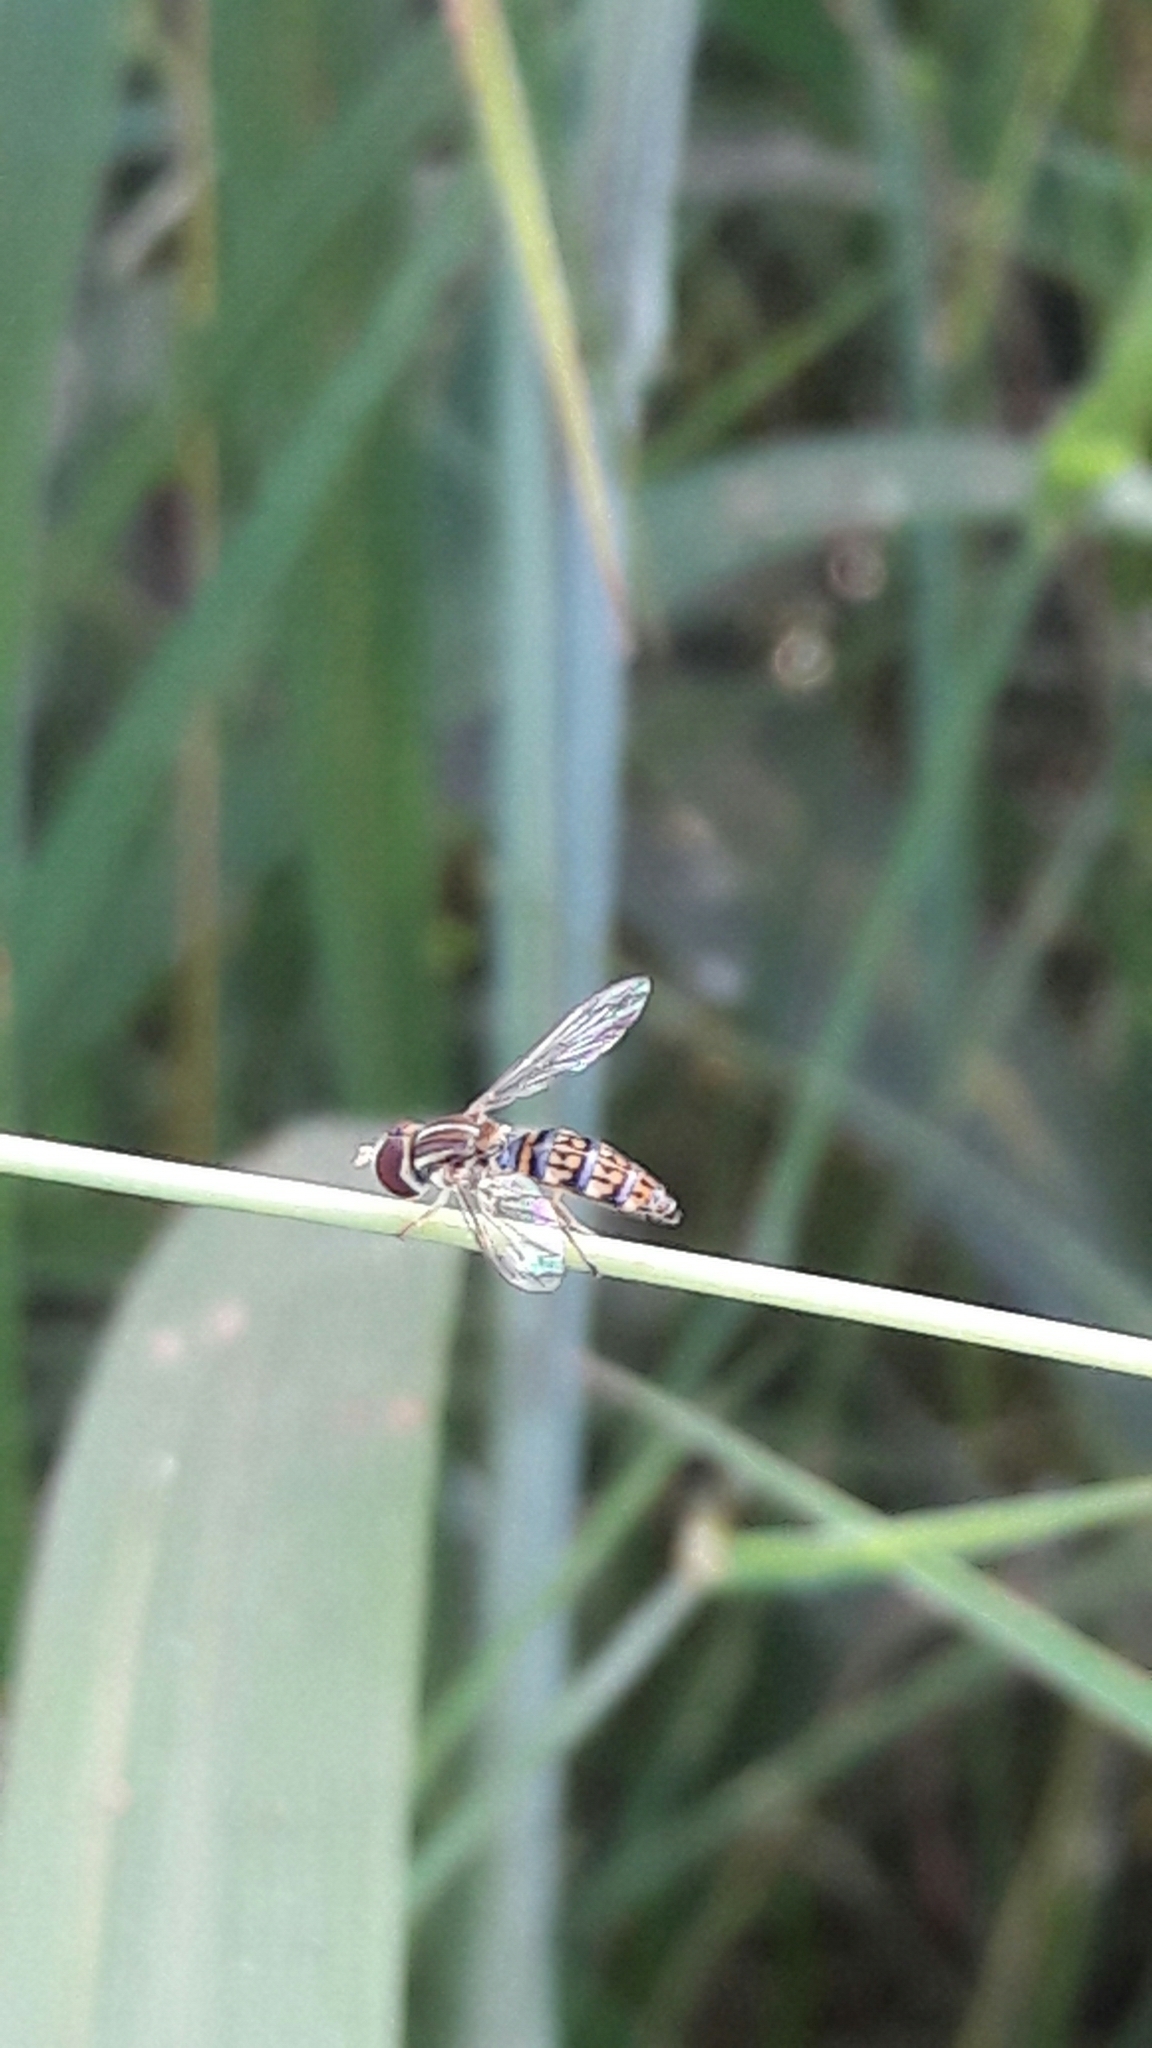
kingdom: Animalia
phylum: Arthropoda
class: Insecta
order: Diptera
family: Syrphidae
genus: Toxomerus
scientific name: Toxomerus
